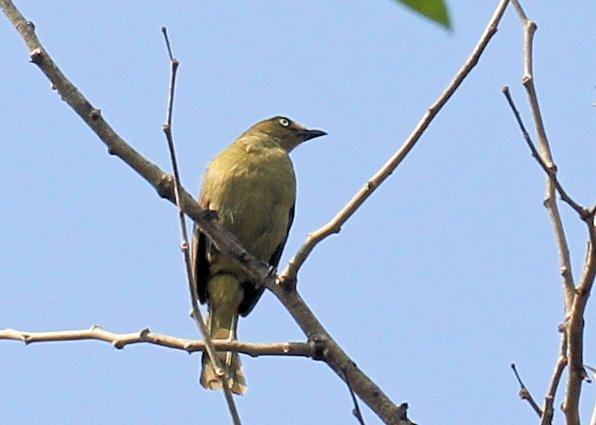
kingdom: Animalia
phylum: Chordata
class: Aves
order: Passeriformes
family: Pycnonotidae
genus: Andropadus
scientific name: Andropadus importunus
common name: Sombre greenbul
